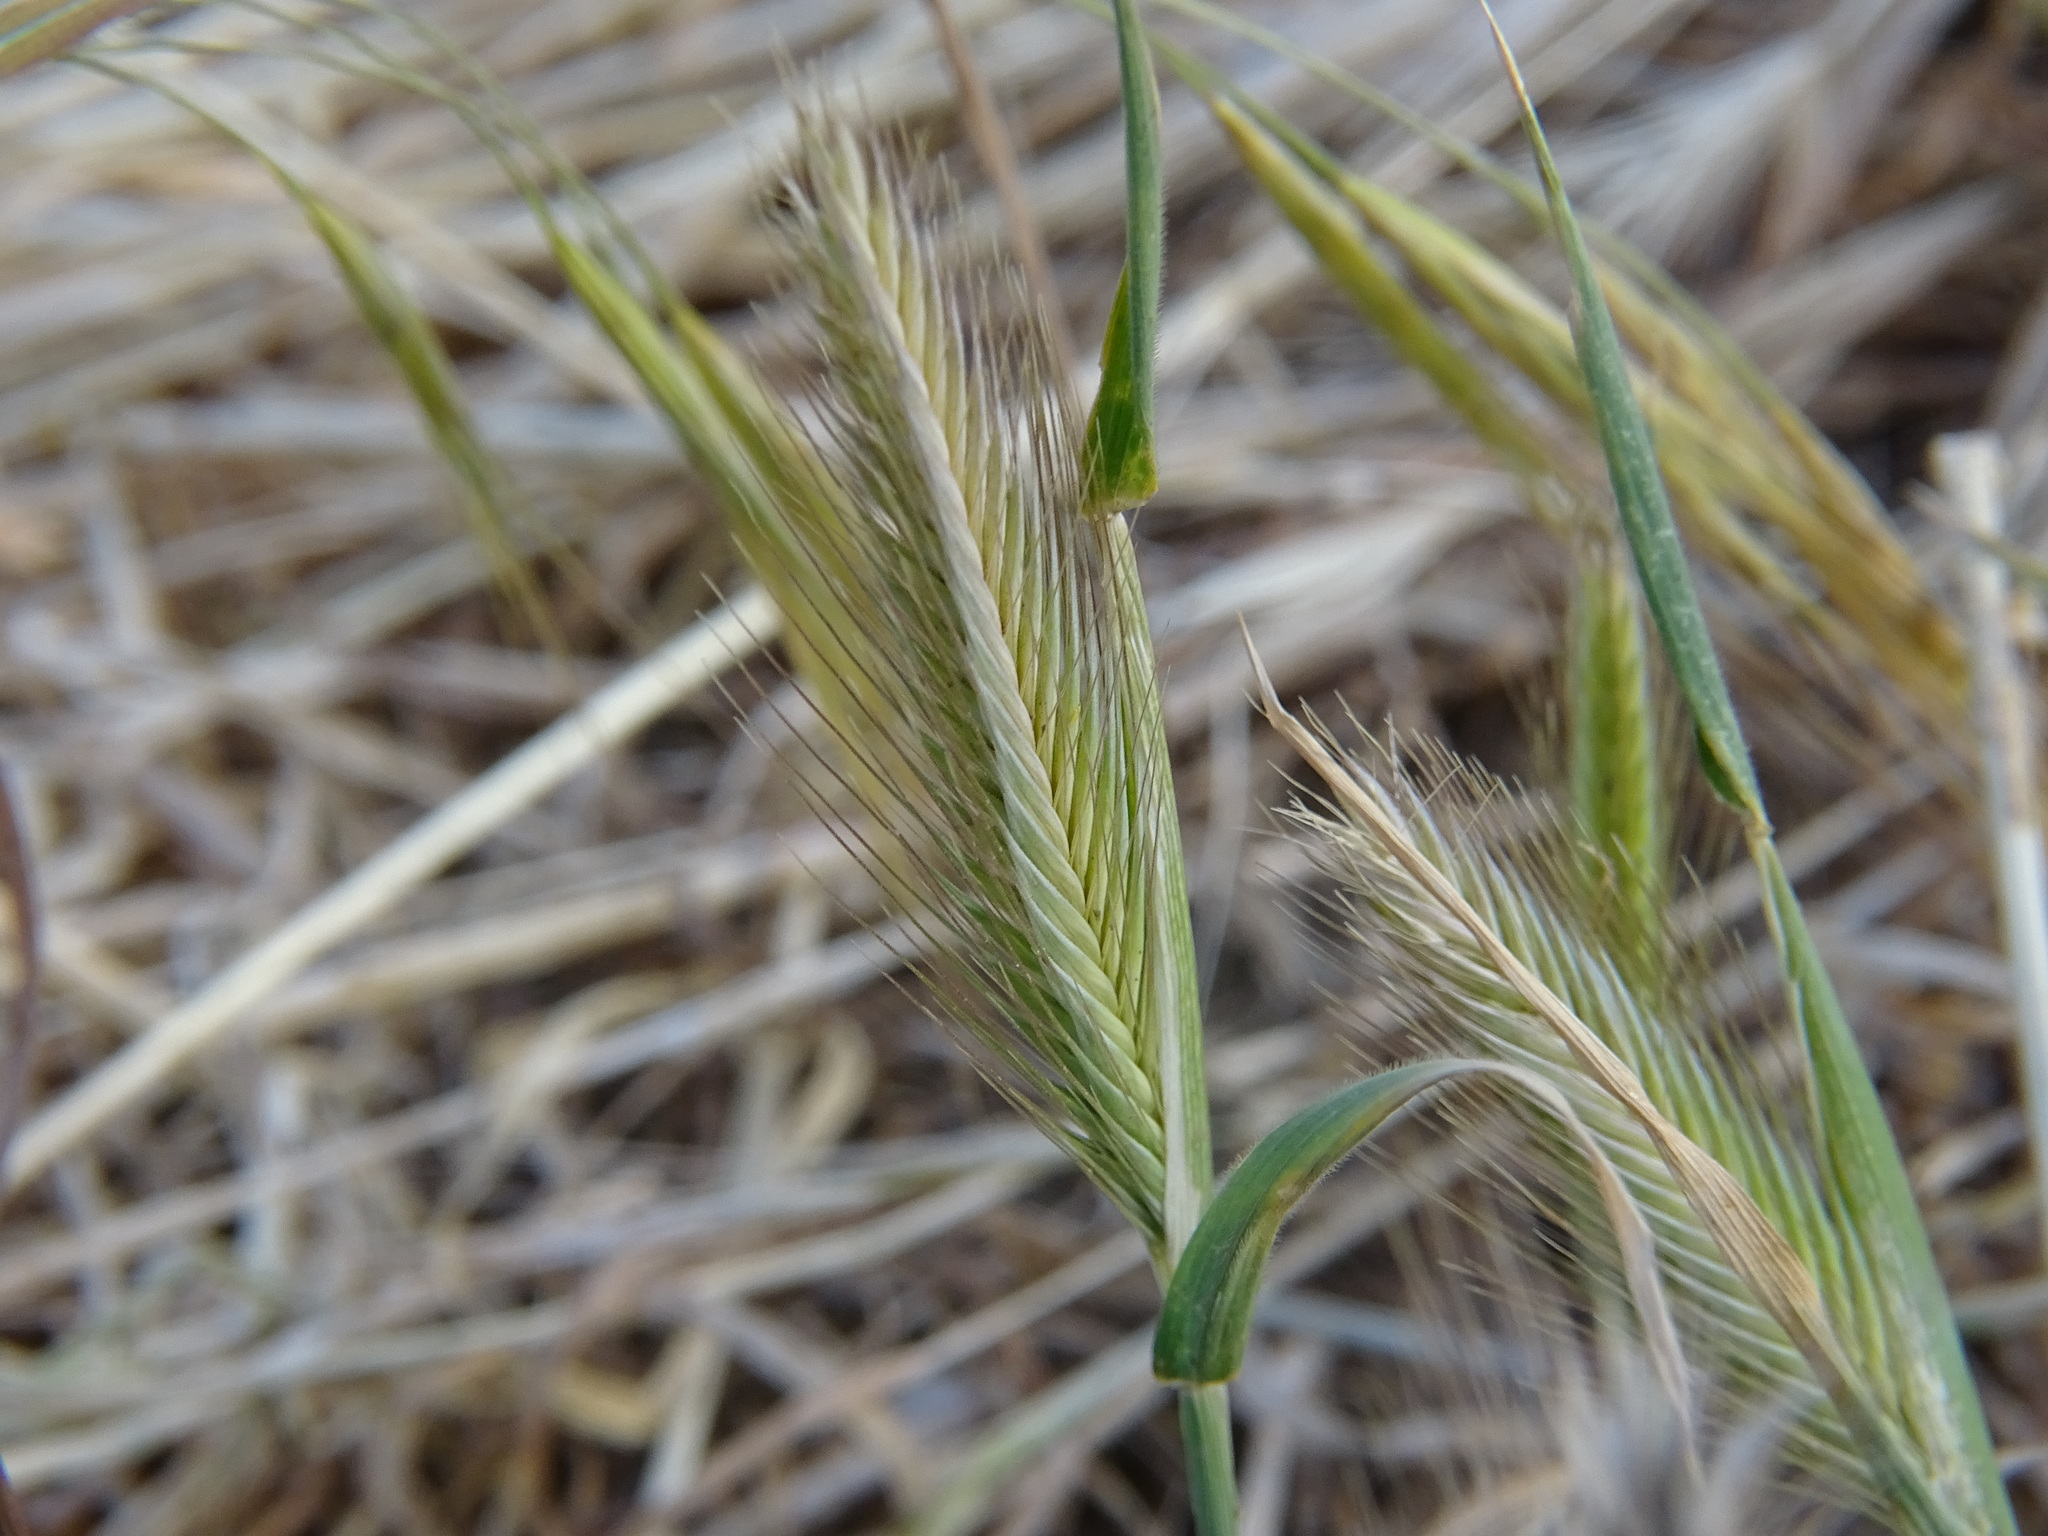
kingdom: Plantae
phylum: Tracheophyta
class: Liliopsida
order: Poales
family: Poaceae
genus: Hordeum
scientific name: Hordeum murinum
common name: Wall barley
